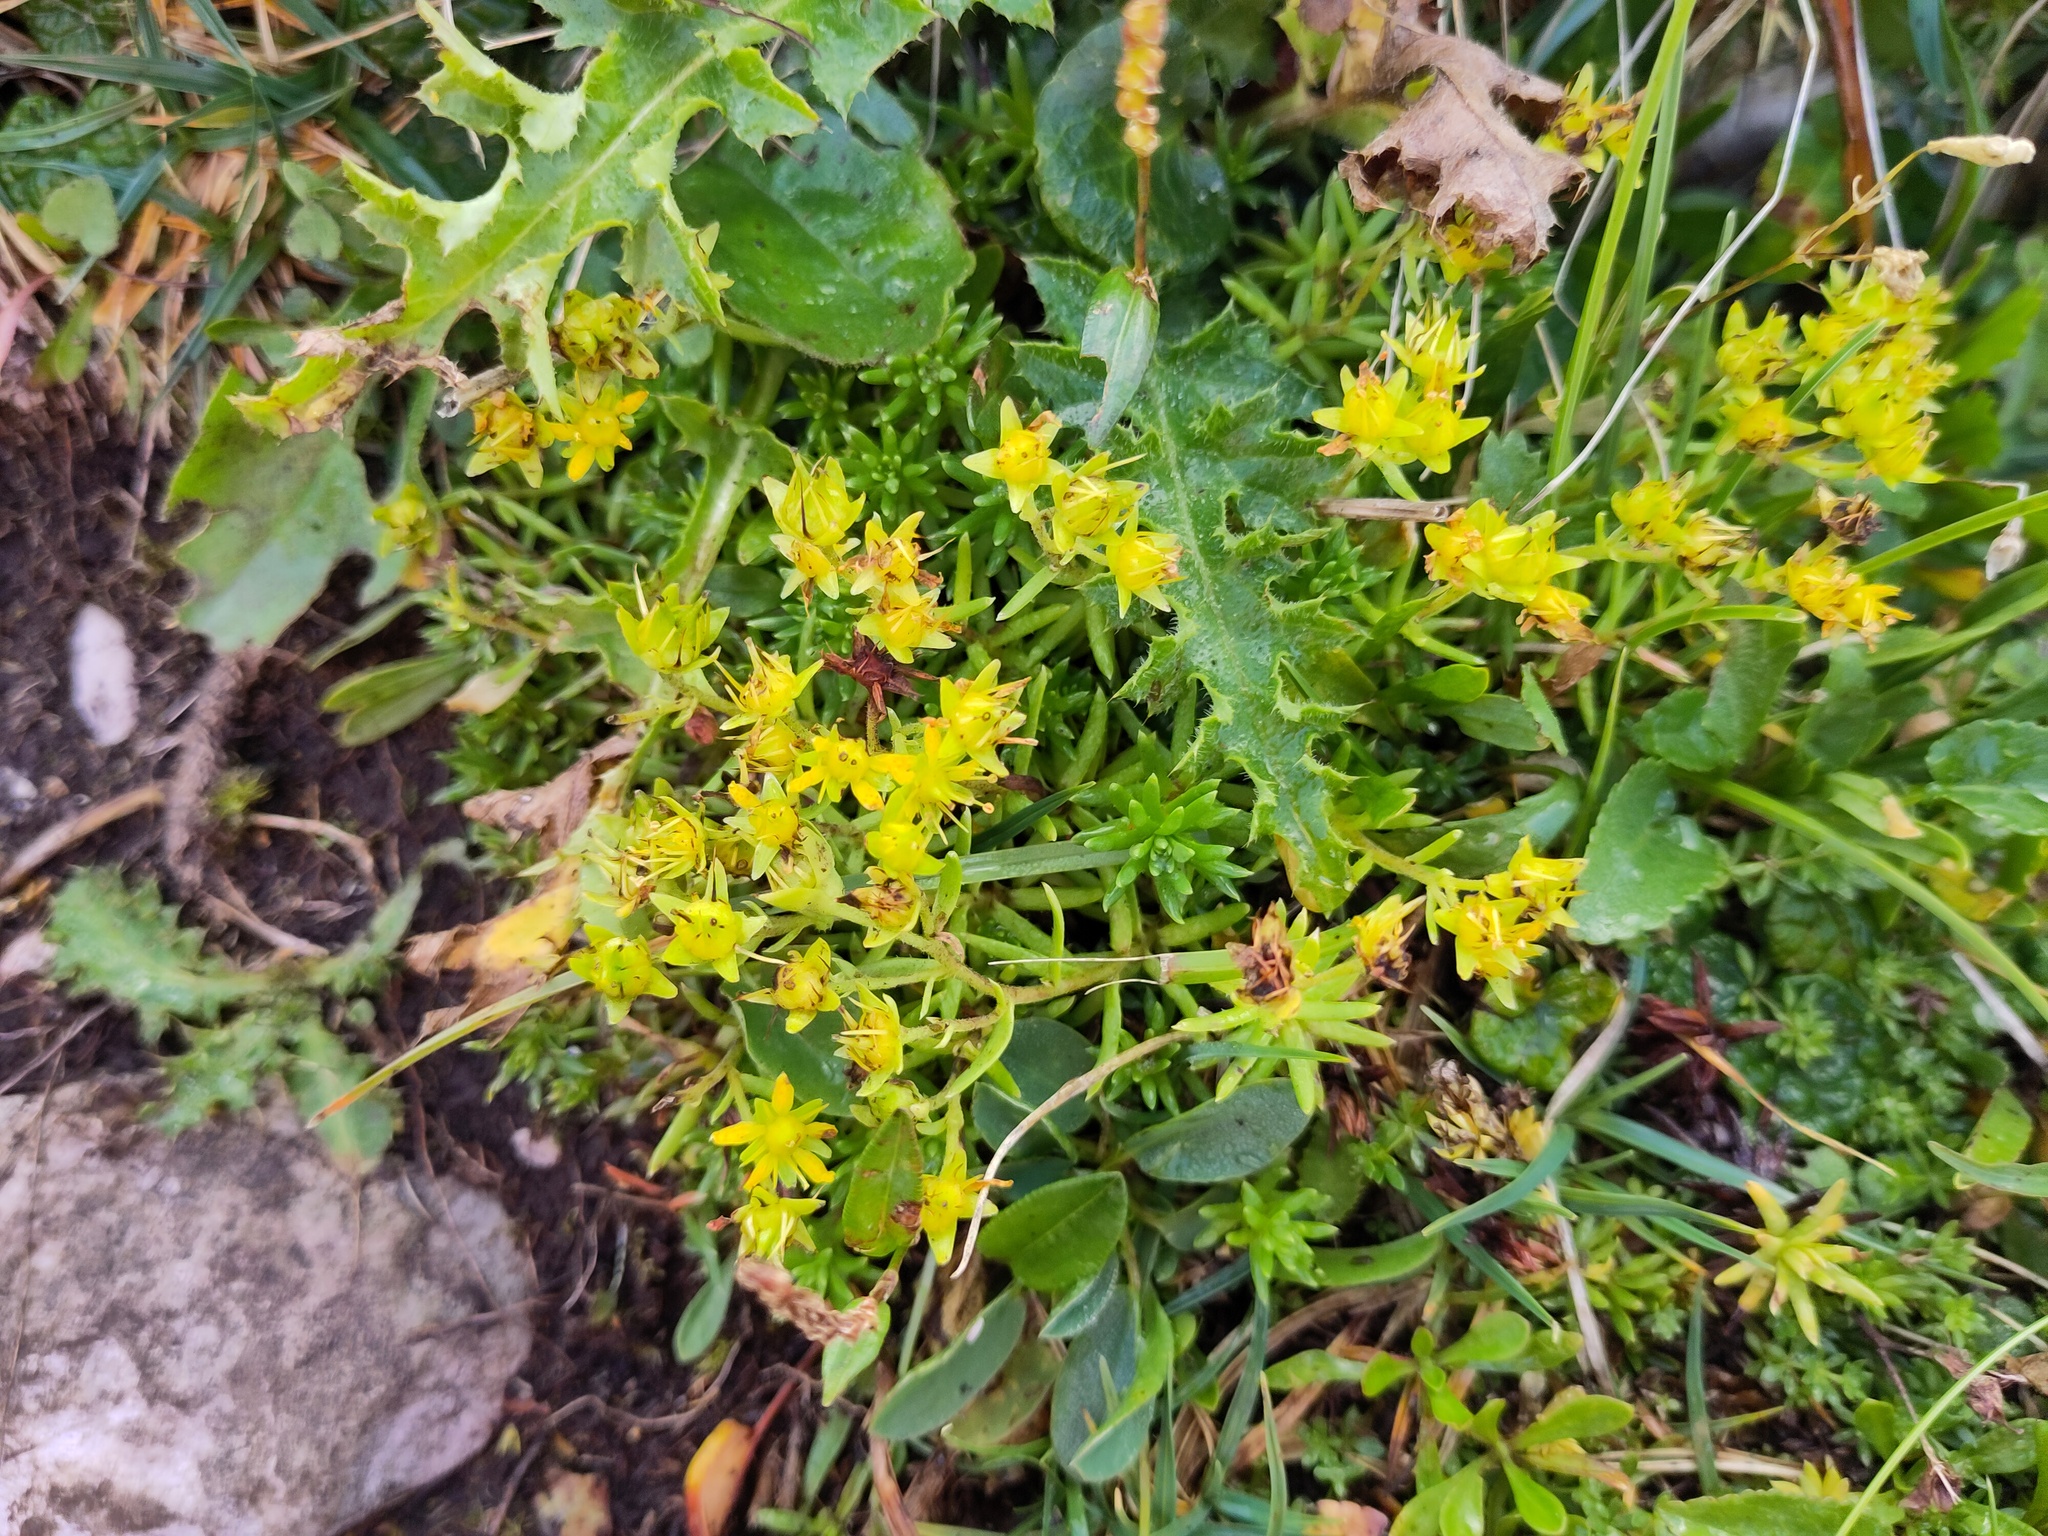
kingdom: Plantae
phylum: Tracheophyta
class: Magnoliopsida
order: Saxifragales
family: Saxifragaceae
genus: Saxifraga
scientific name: Saxifraga aizoides
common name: Yellow mountain saxifrage
